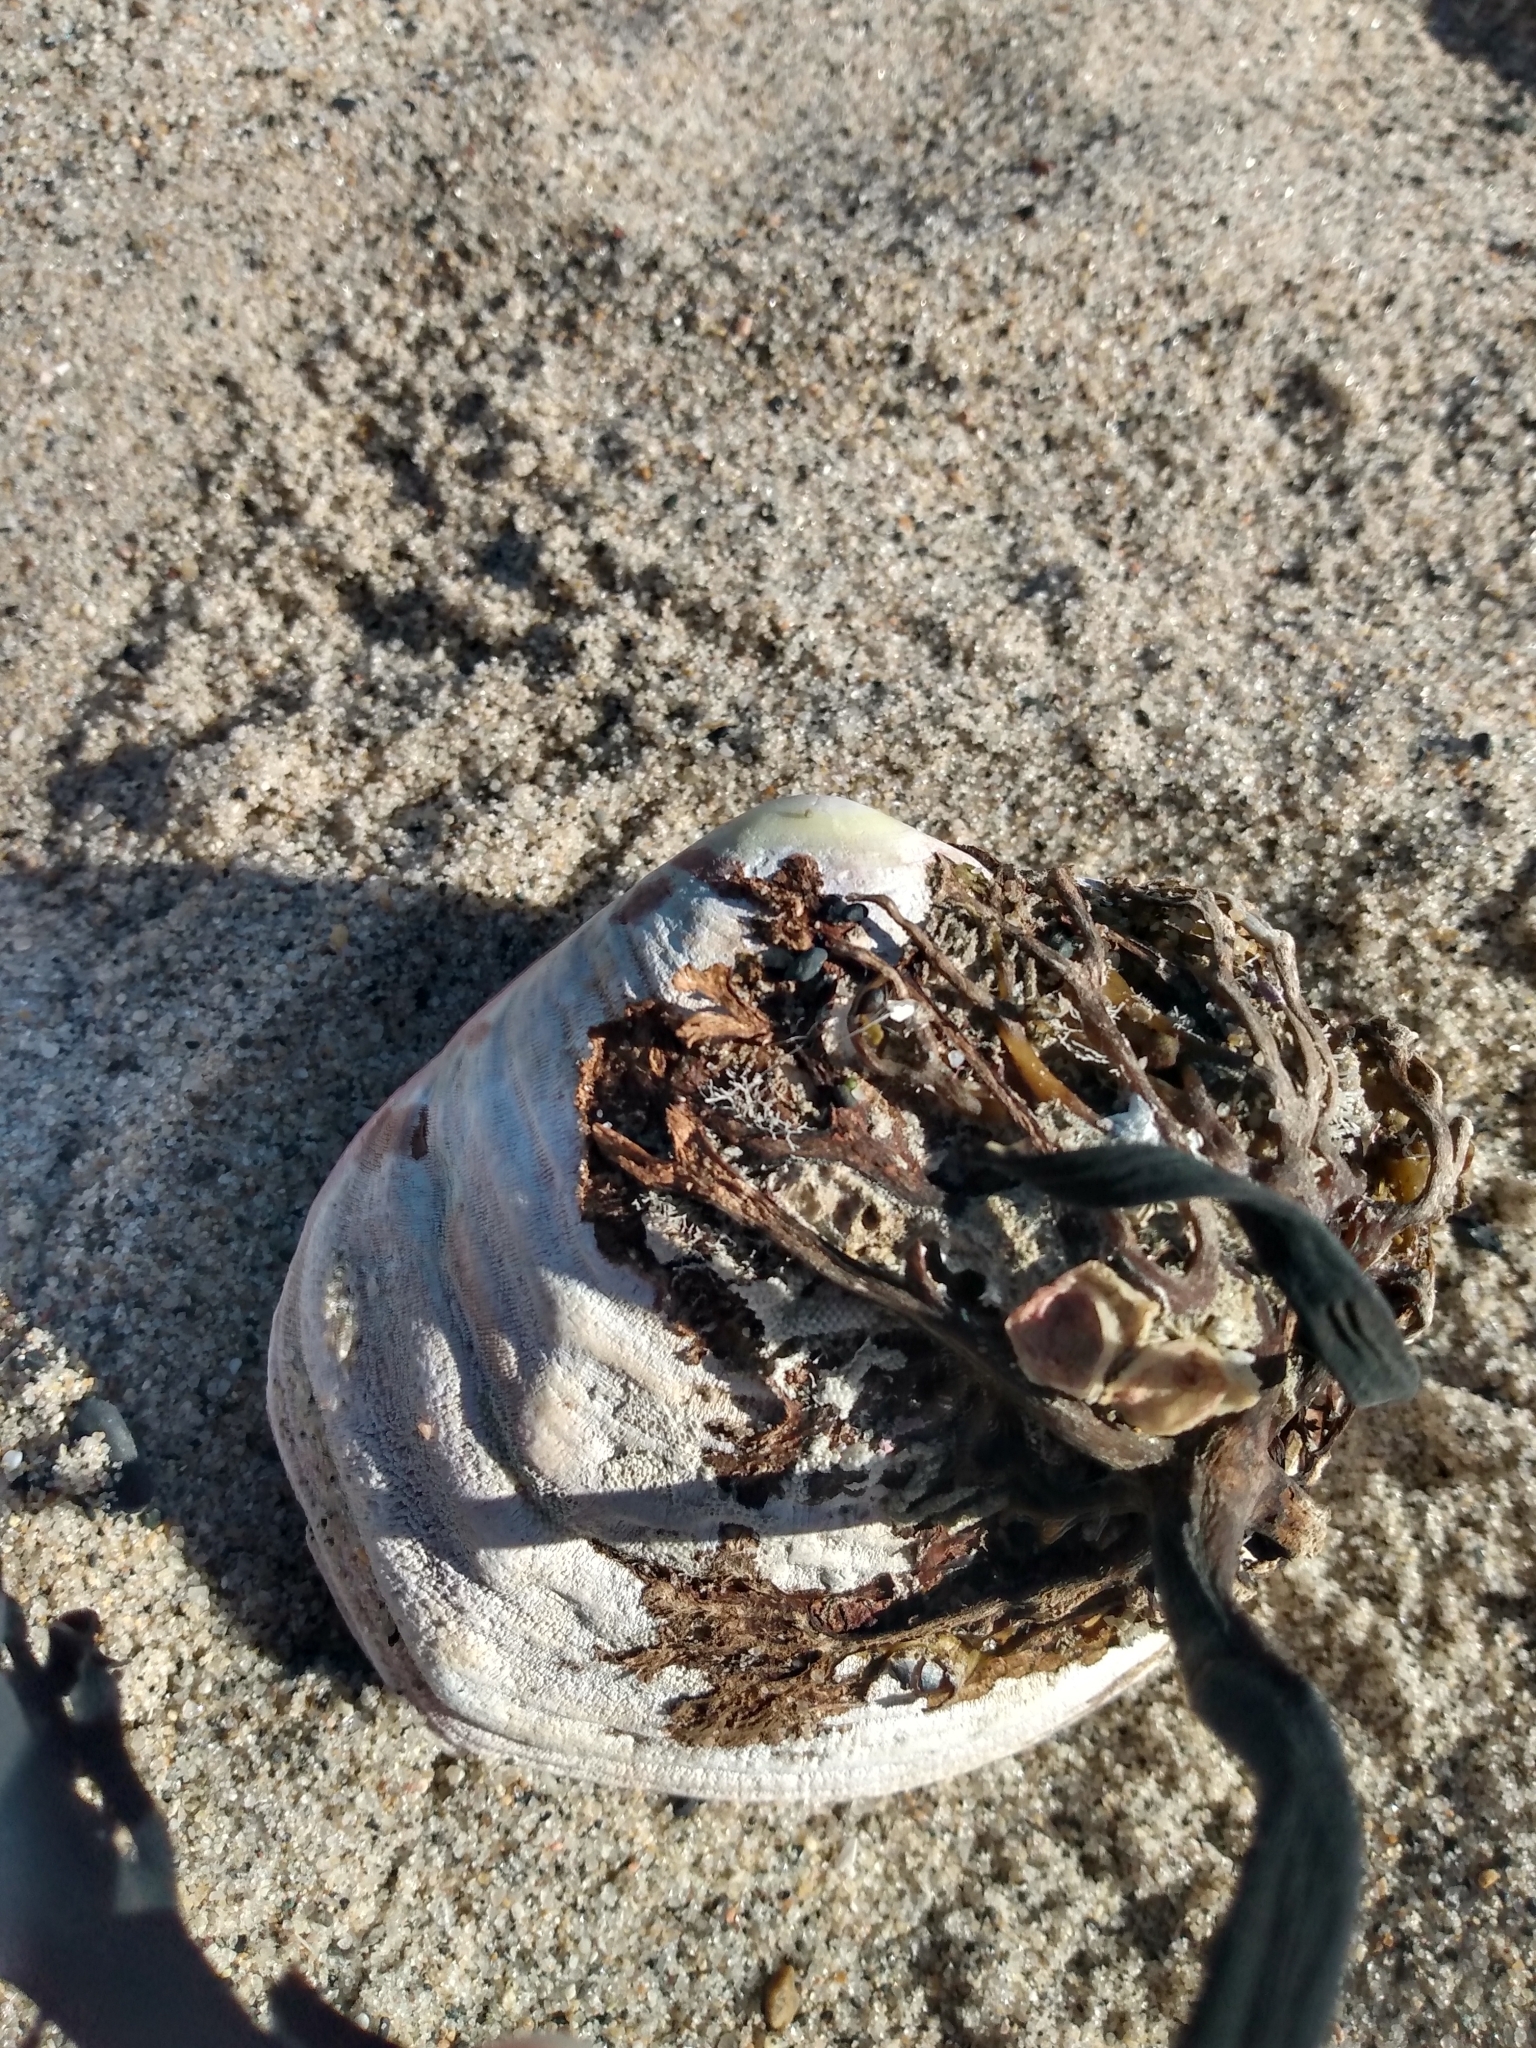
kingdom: Animalia
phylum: Mollusca
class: Bivalvia
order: Cardiida
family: Semelidae
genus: Semele
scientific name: Semele decisa
